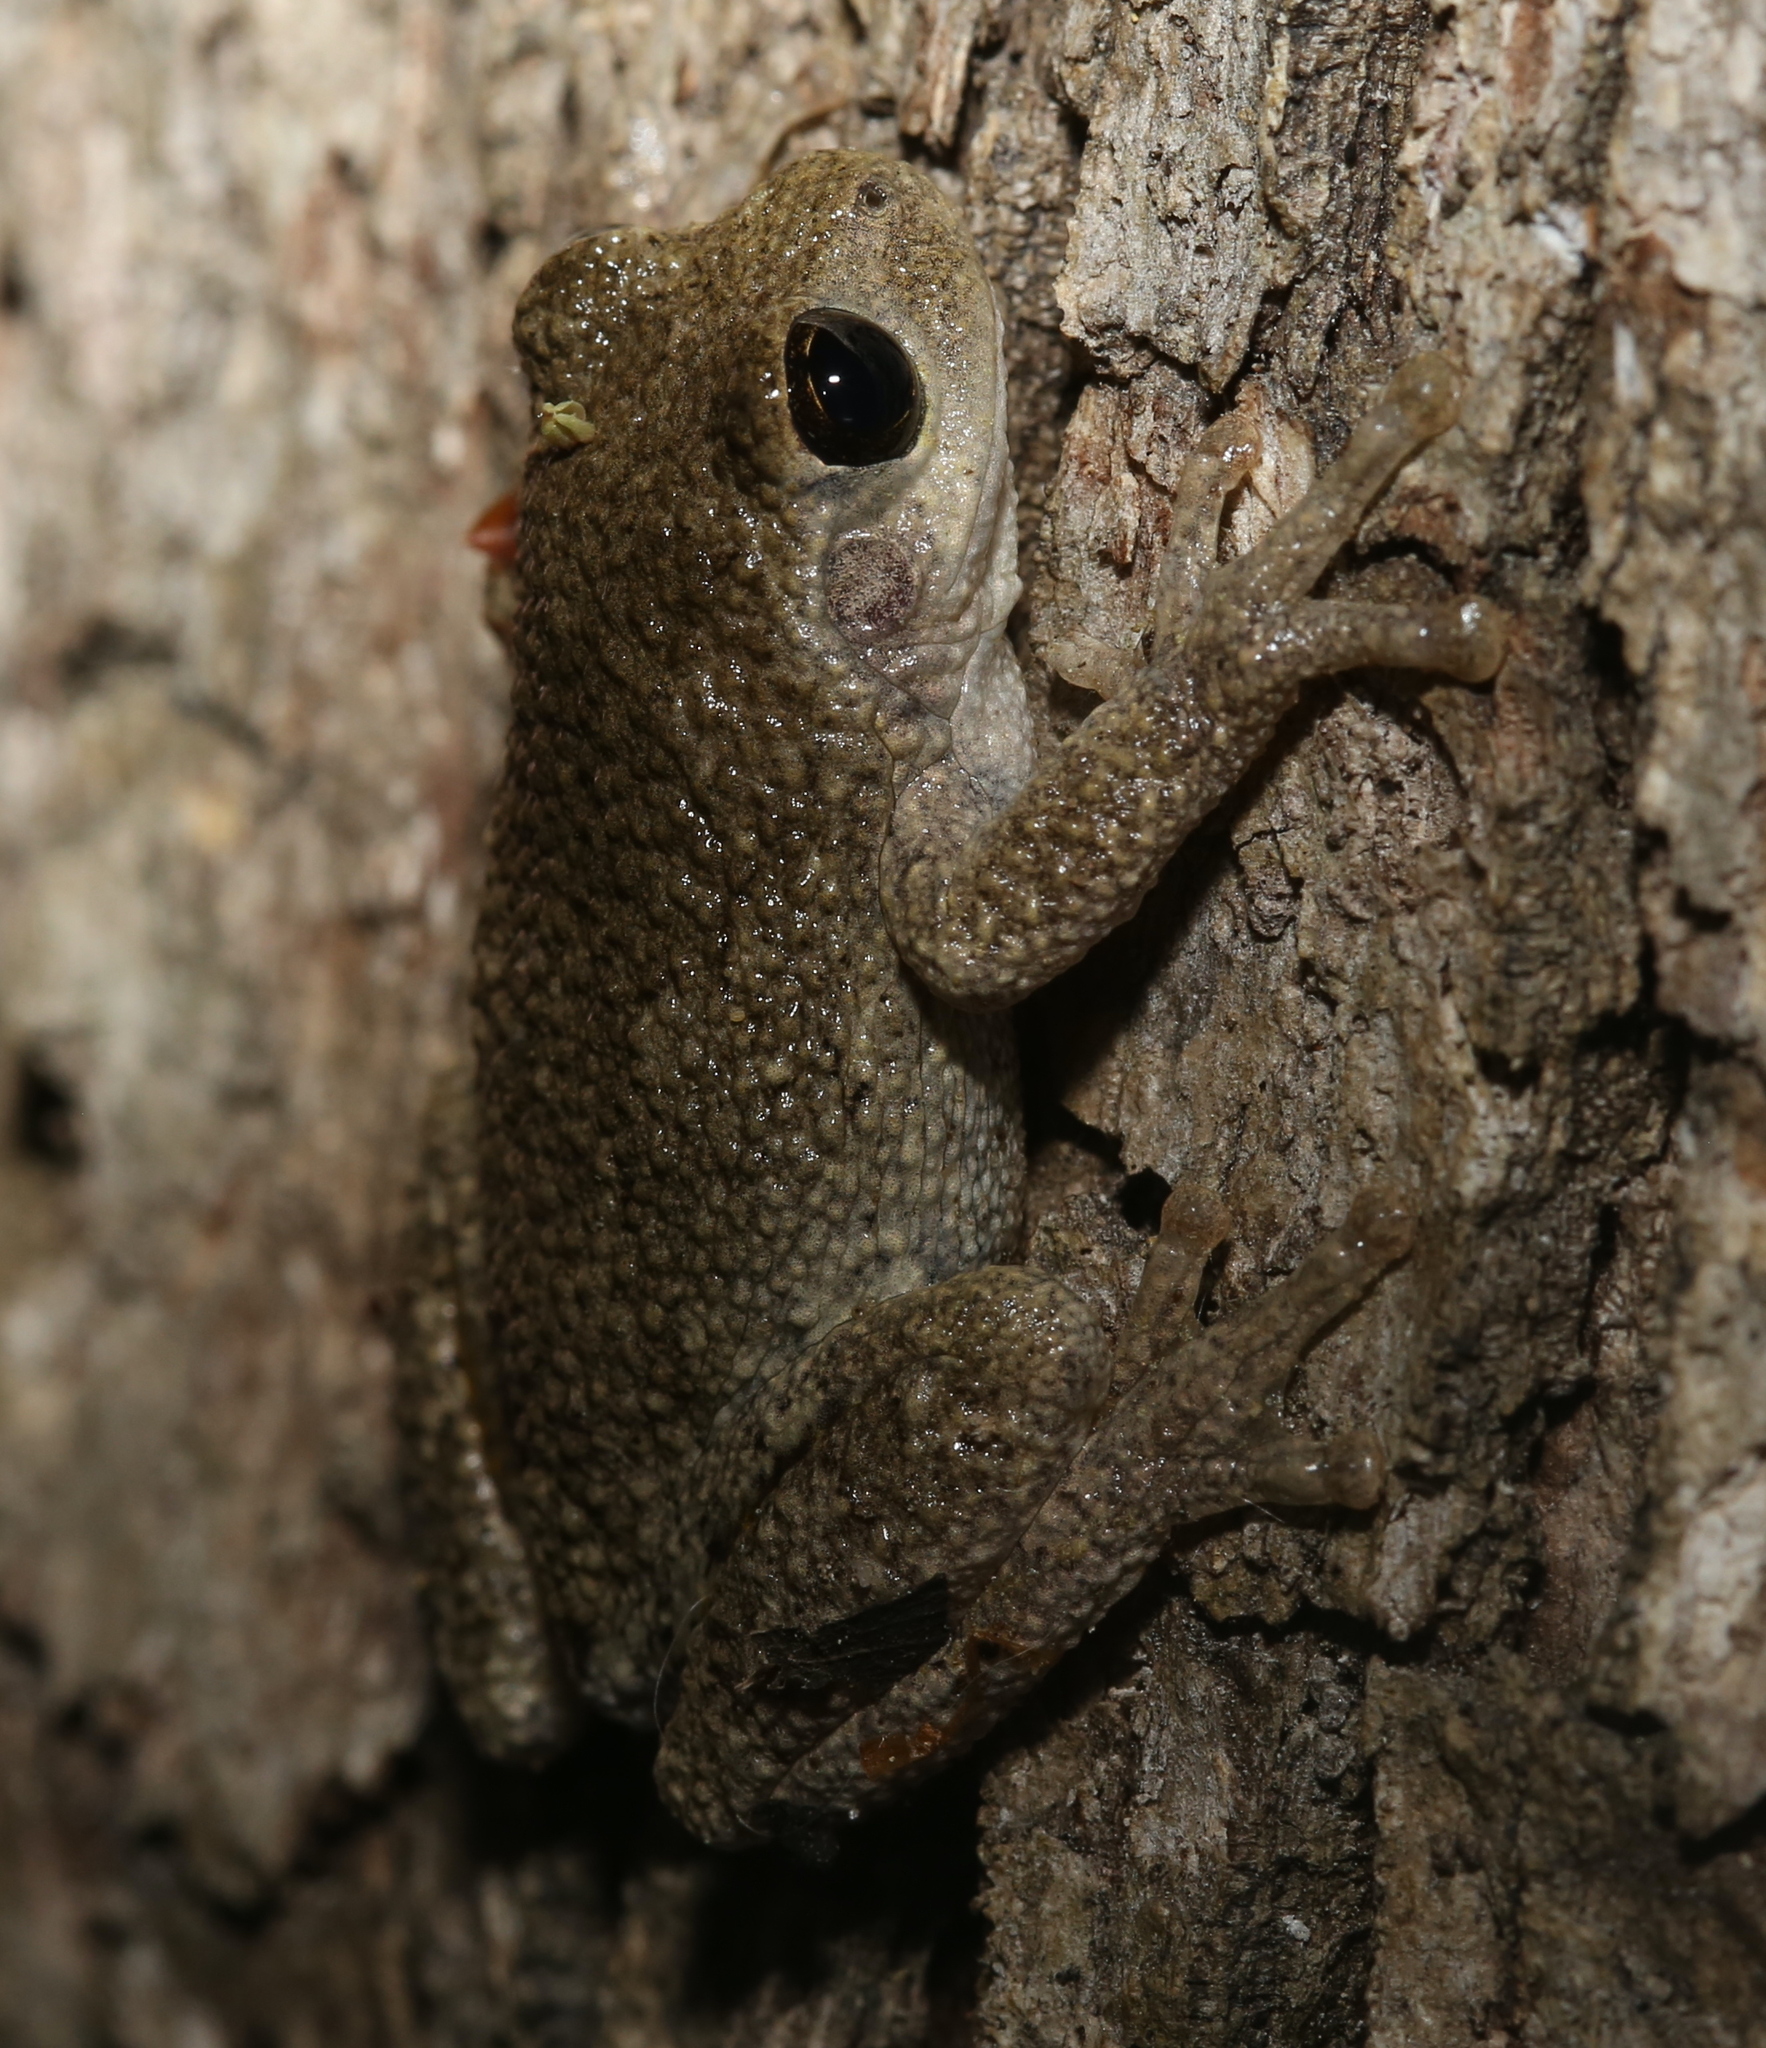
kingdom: Animalia
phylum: Chordata
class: Amphibia
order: Anura
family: Hylidae
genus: Dryophytes
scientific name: Dryophytes chrysoscelis
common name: Cope's gray treefrog
